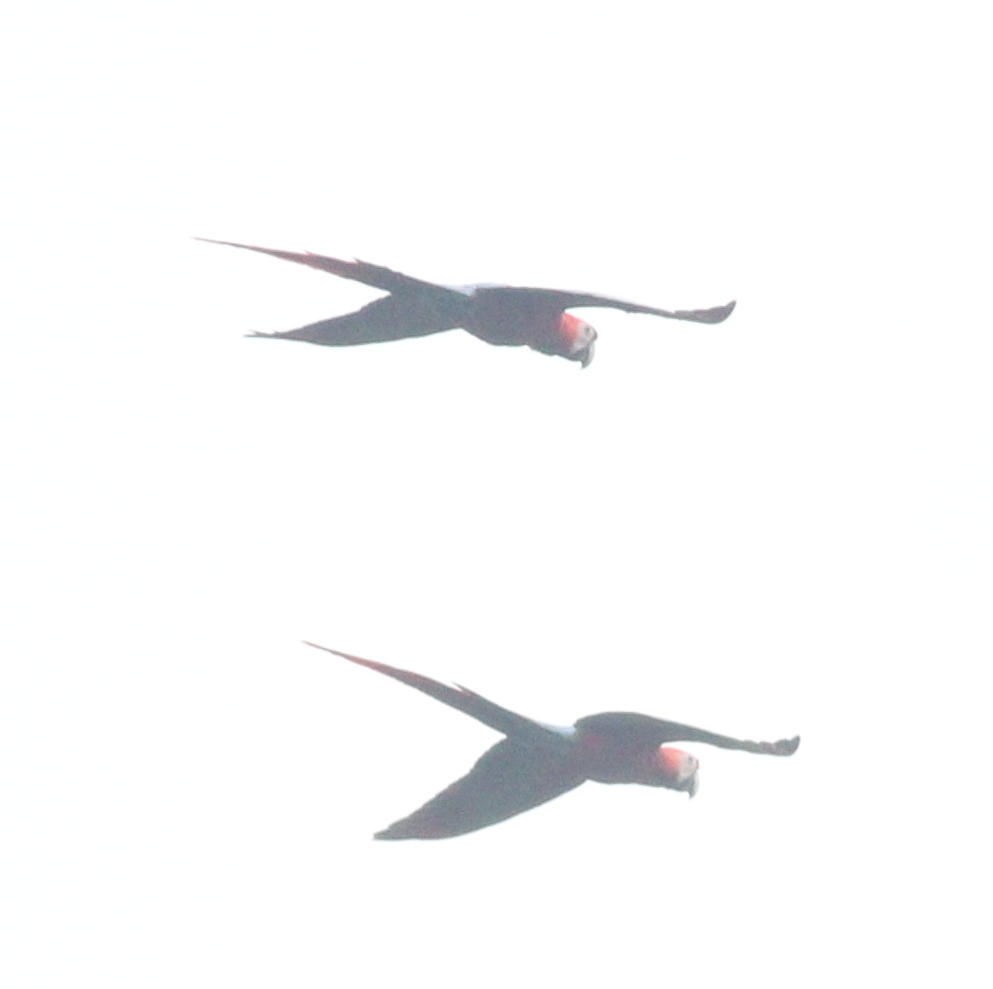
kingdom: Animalia
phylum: Chordata
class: Aves
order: Psittaciformes
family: Psittacidae
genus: Ara
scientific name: Ara macao
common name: Scarlet macaw
